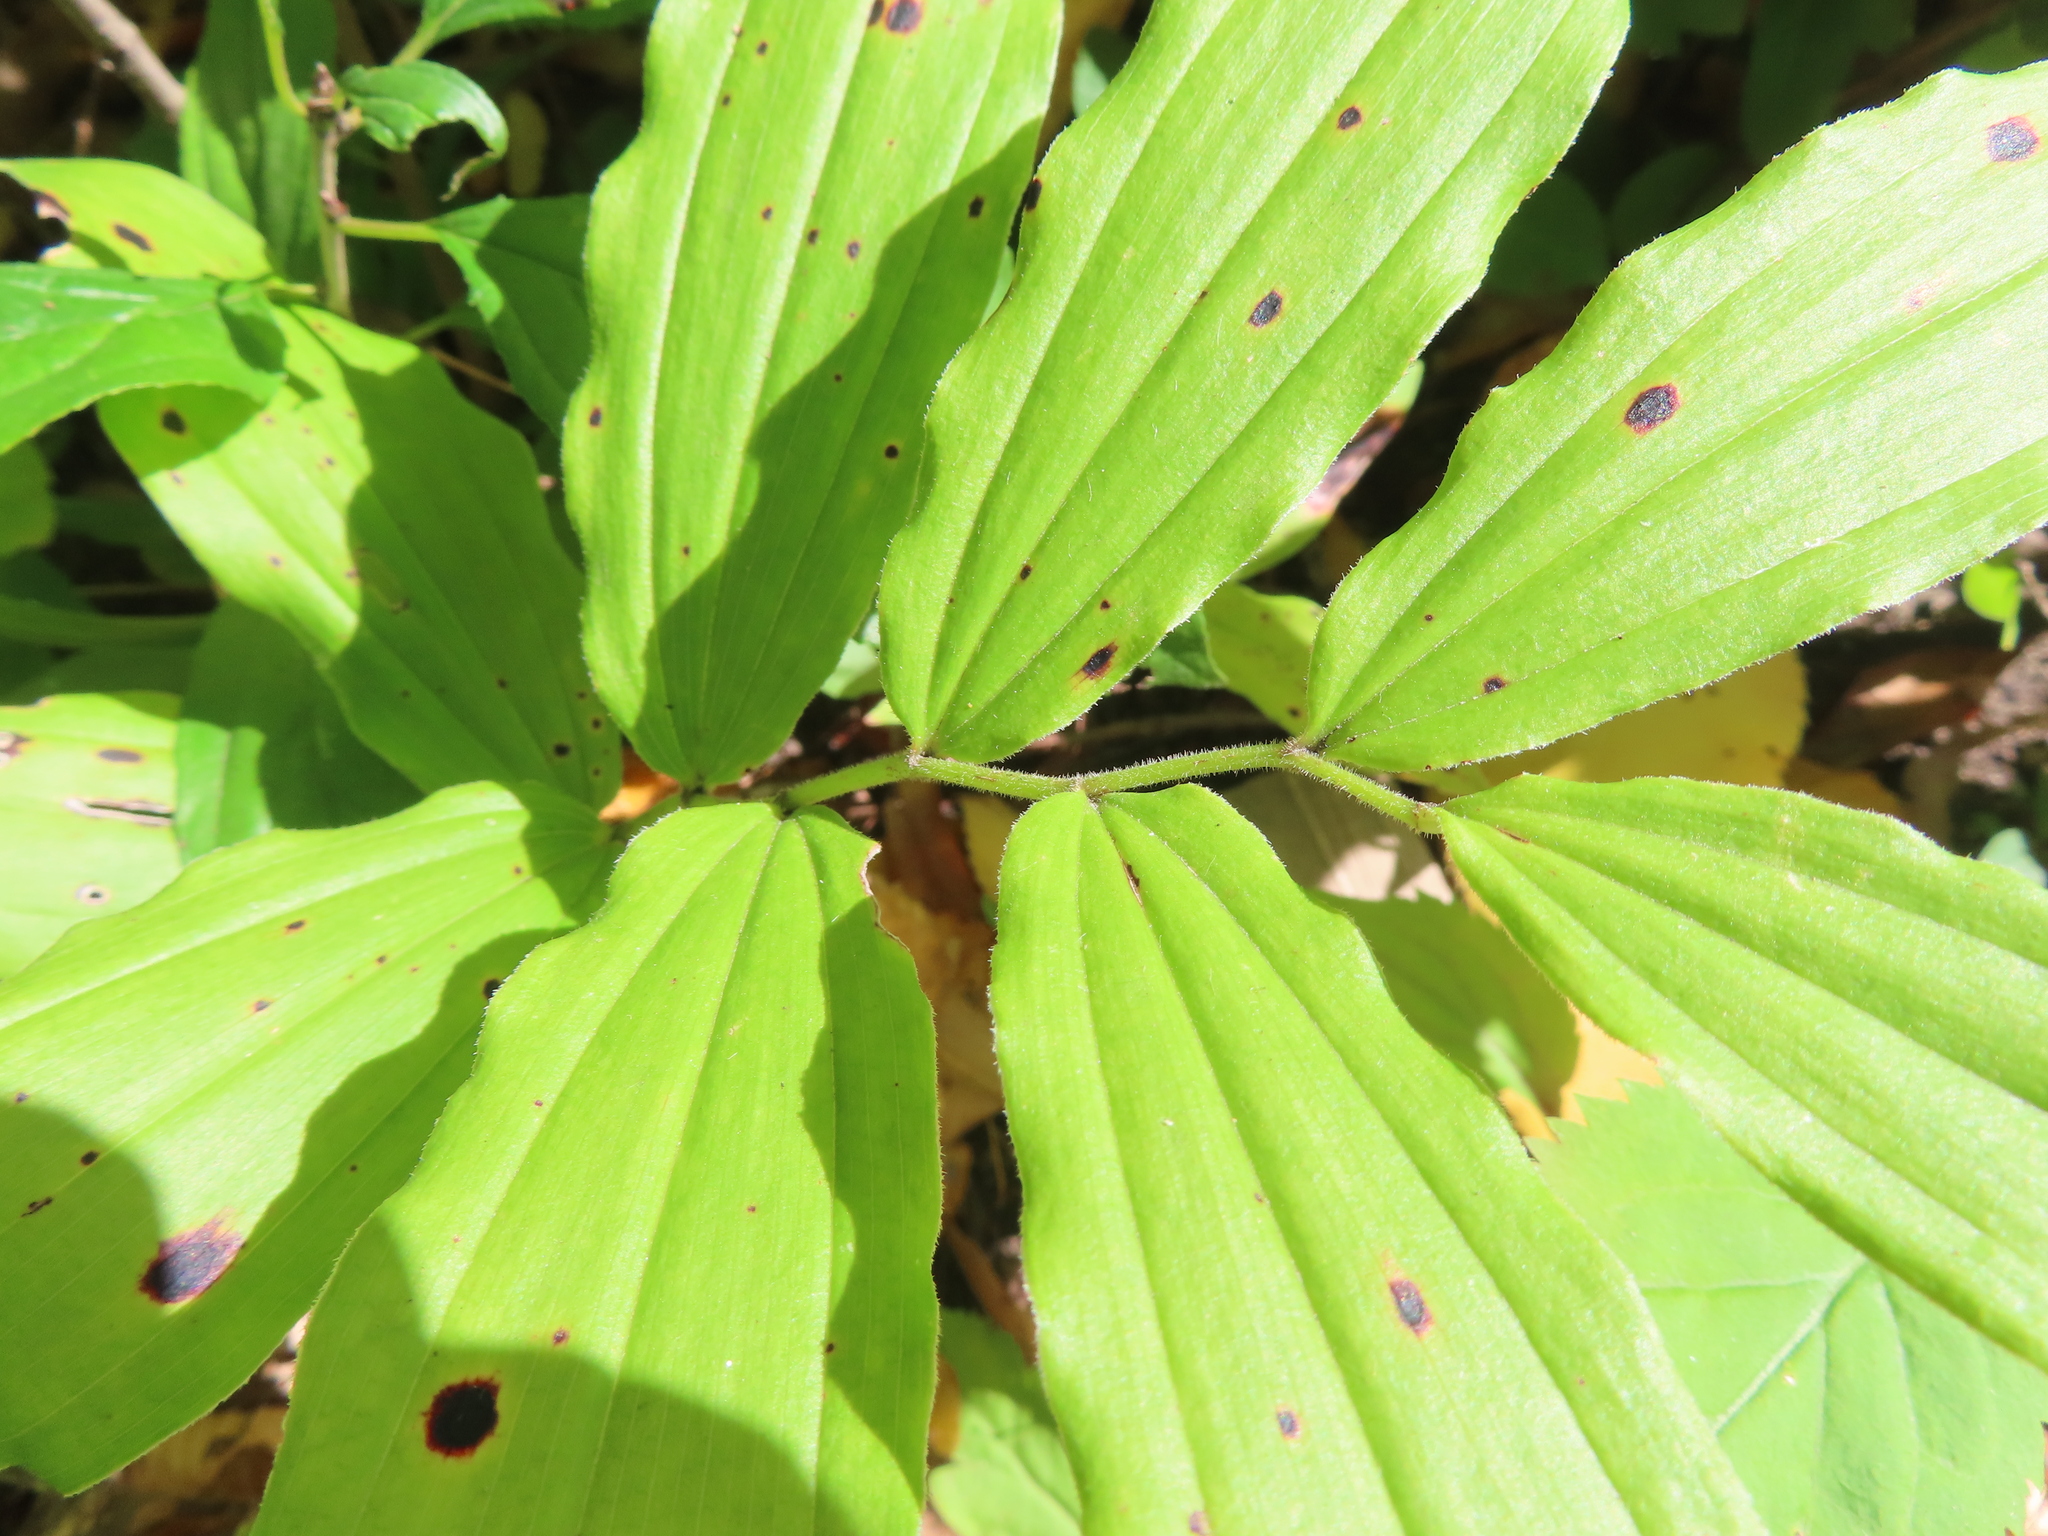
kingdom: Plantae
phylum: Tracheophyta
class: Liliopsida
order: Asparagales
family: Asparagaceae
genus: Maianthemum
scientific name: Maianthemum racemosum
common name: False spikenard
